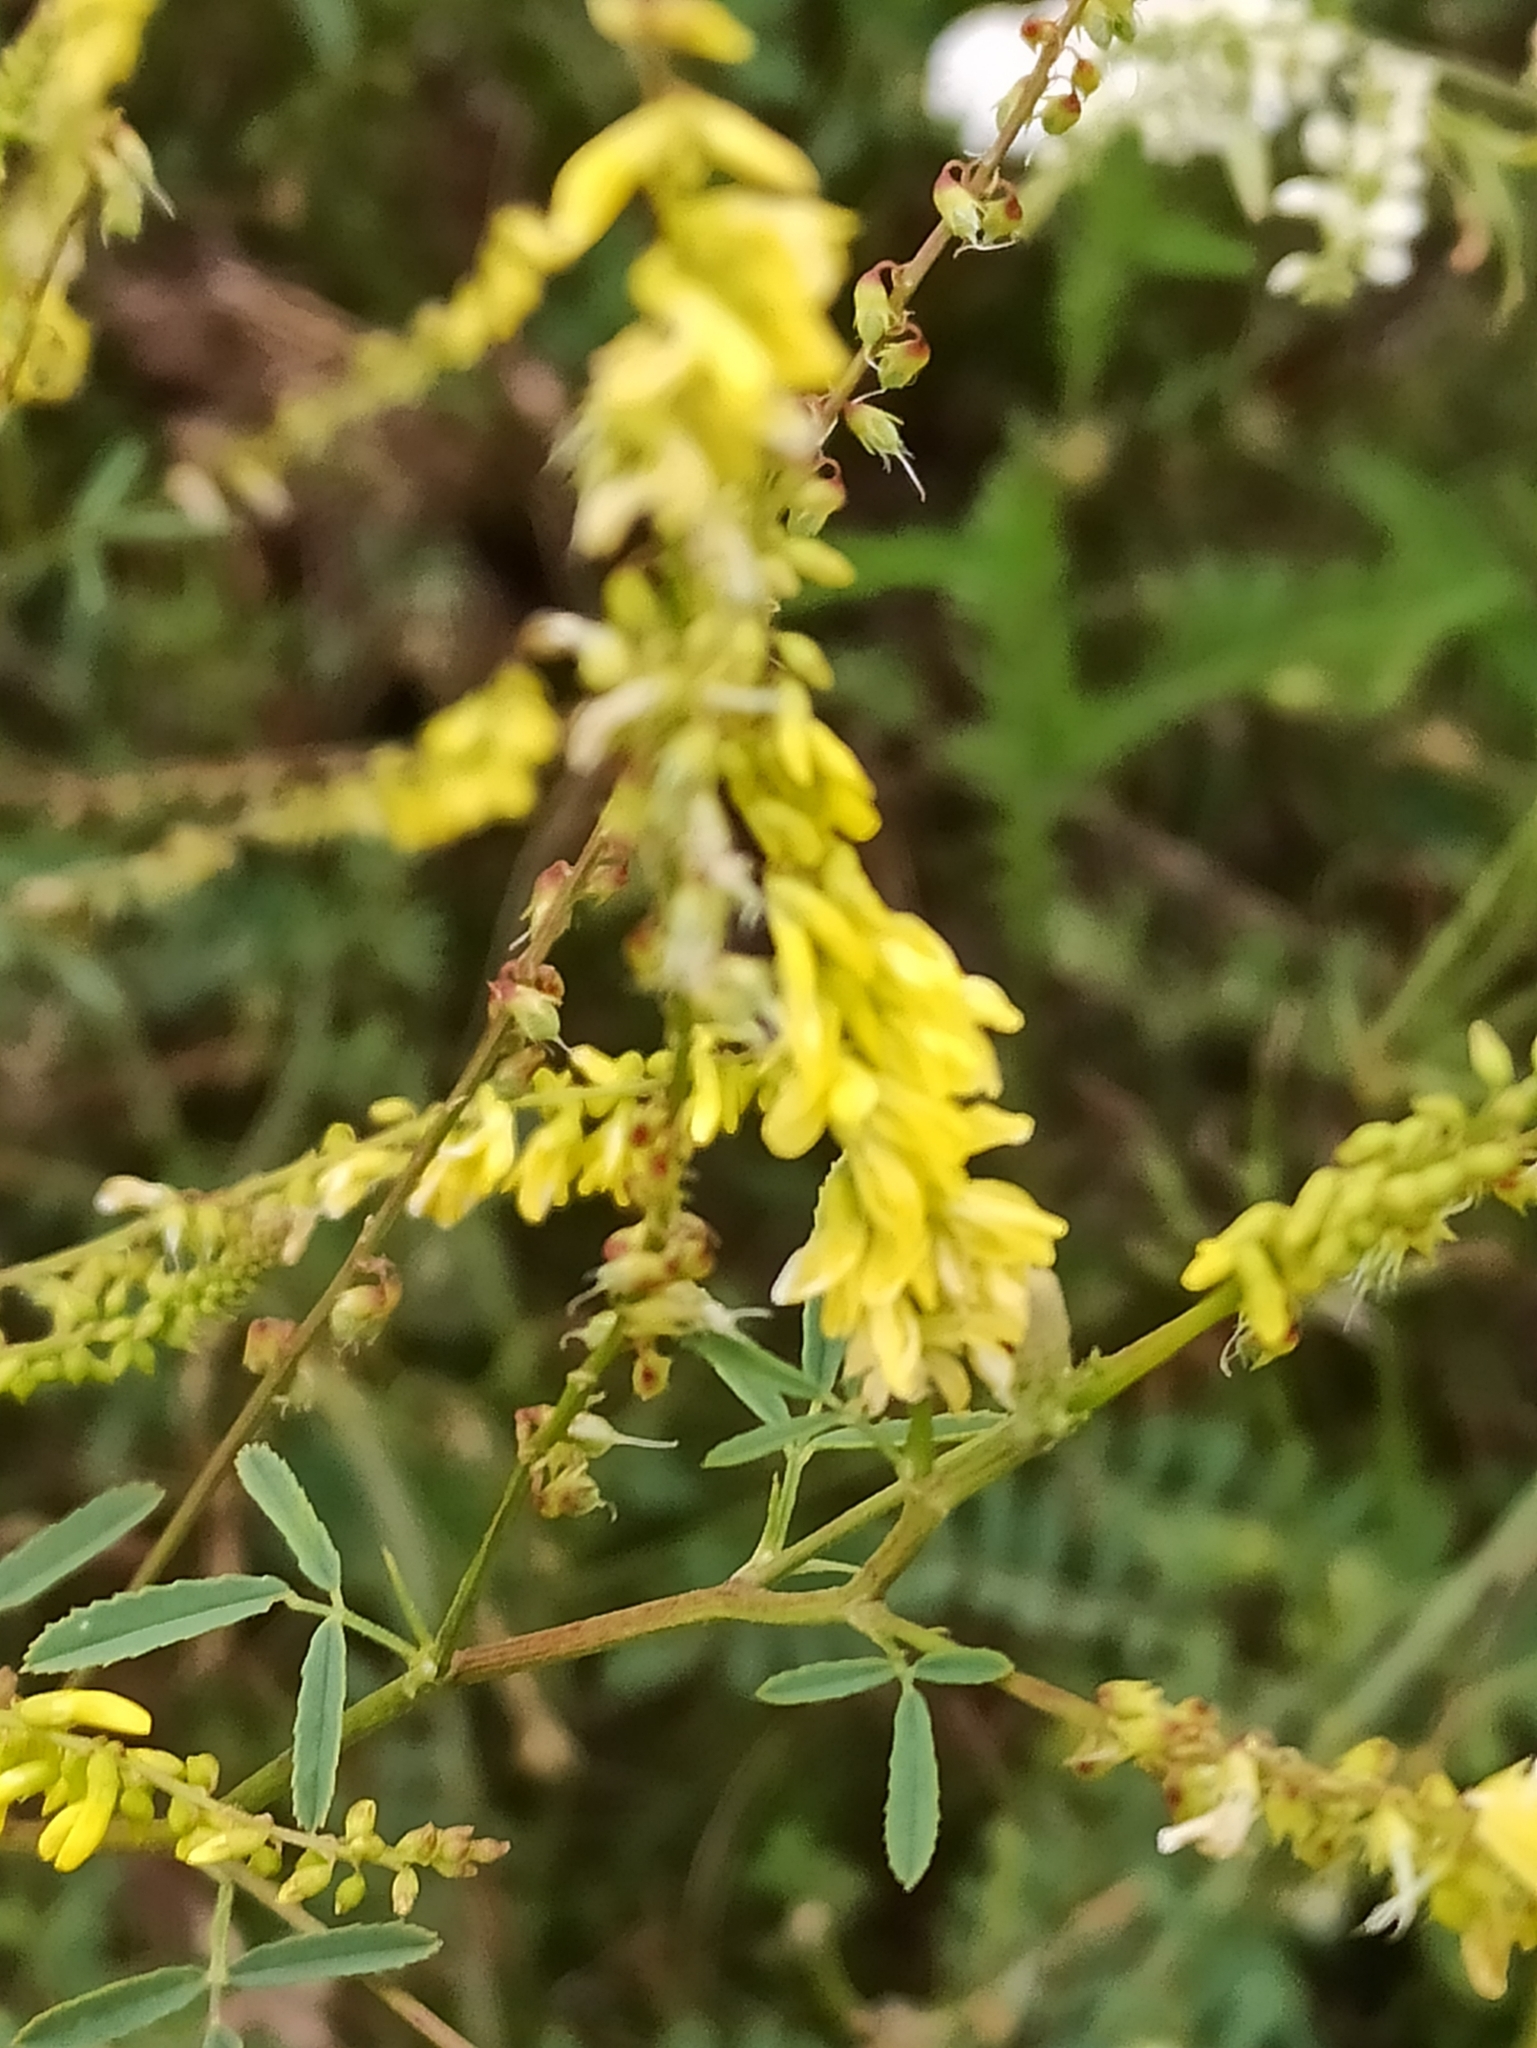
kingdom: Plantae
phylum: Tracheophyta
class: Magnoliopsida
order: Fabales
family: Fabaceae
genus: Melilotus
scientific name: Melilotus officinalis
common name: Sweetclover
